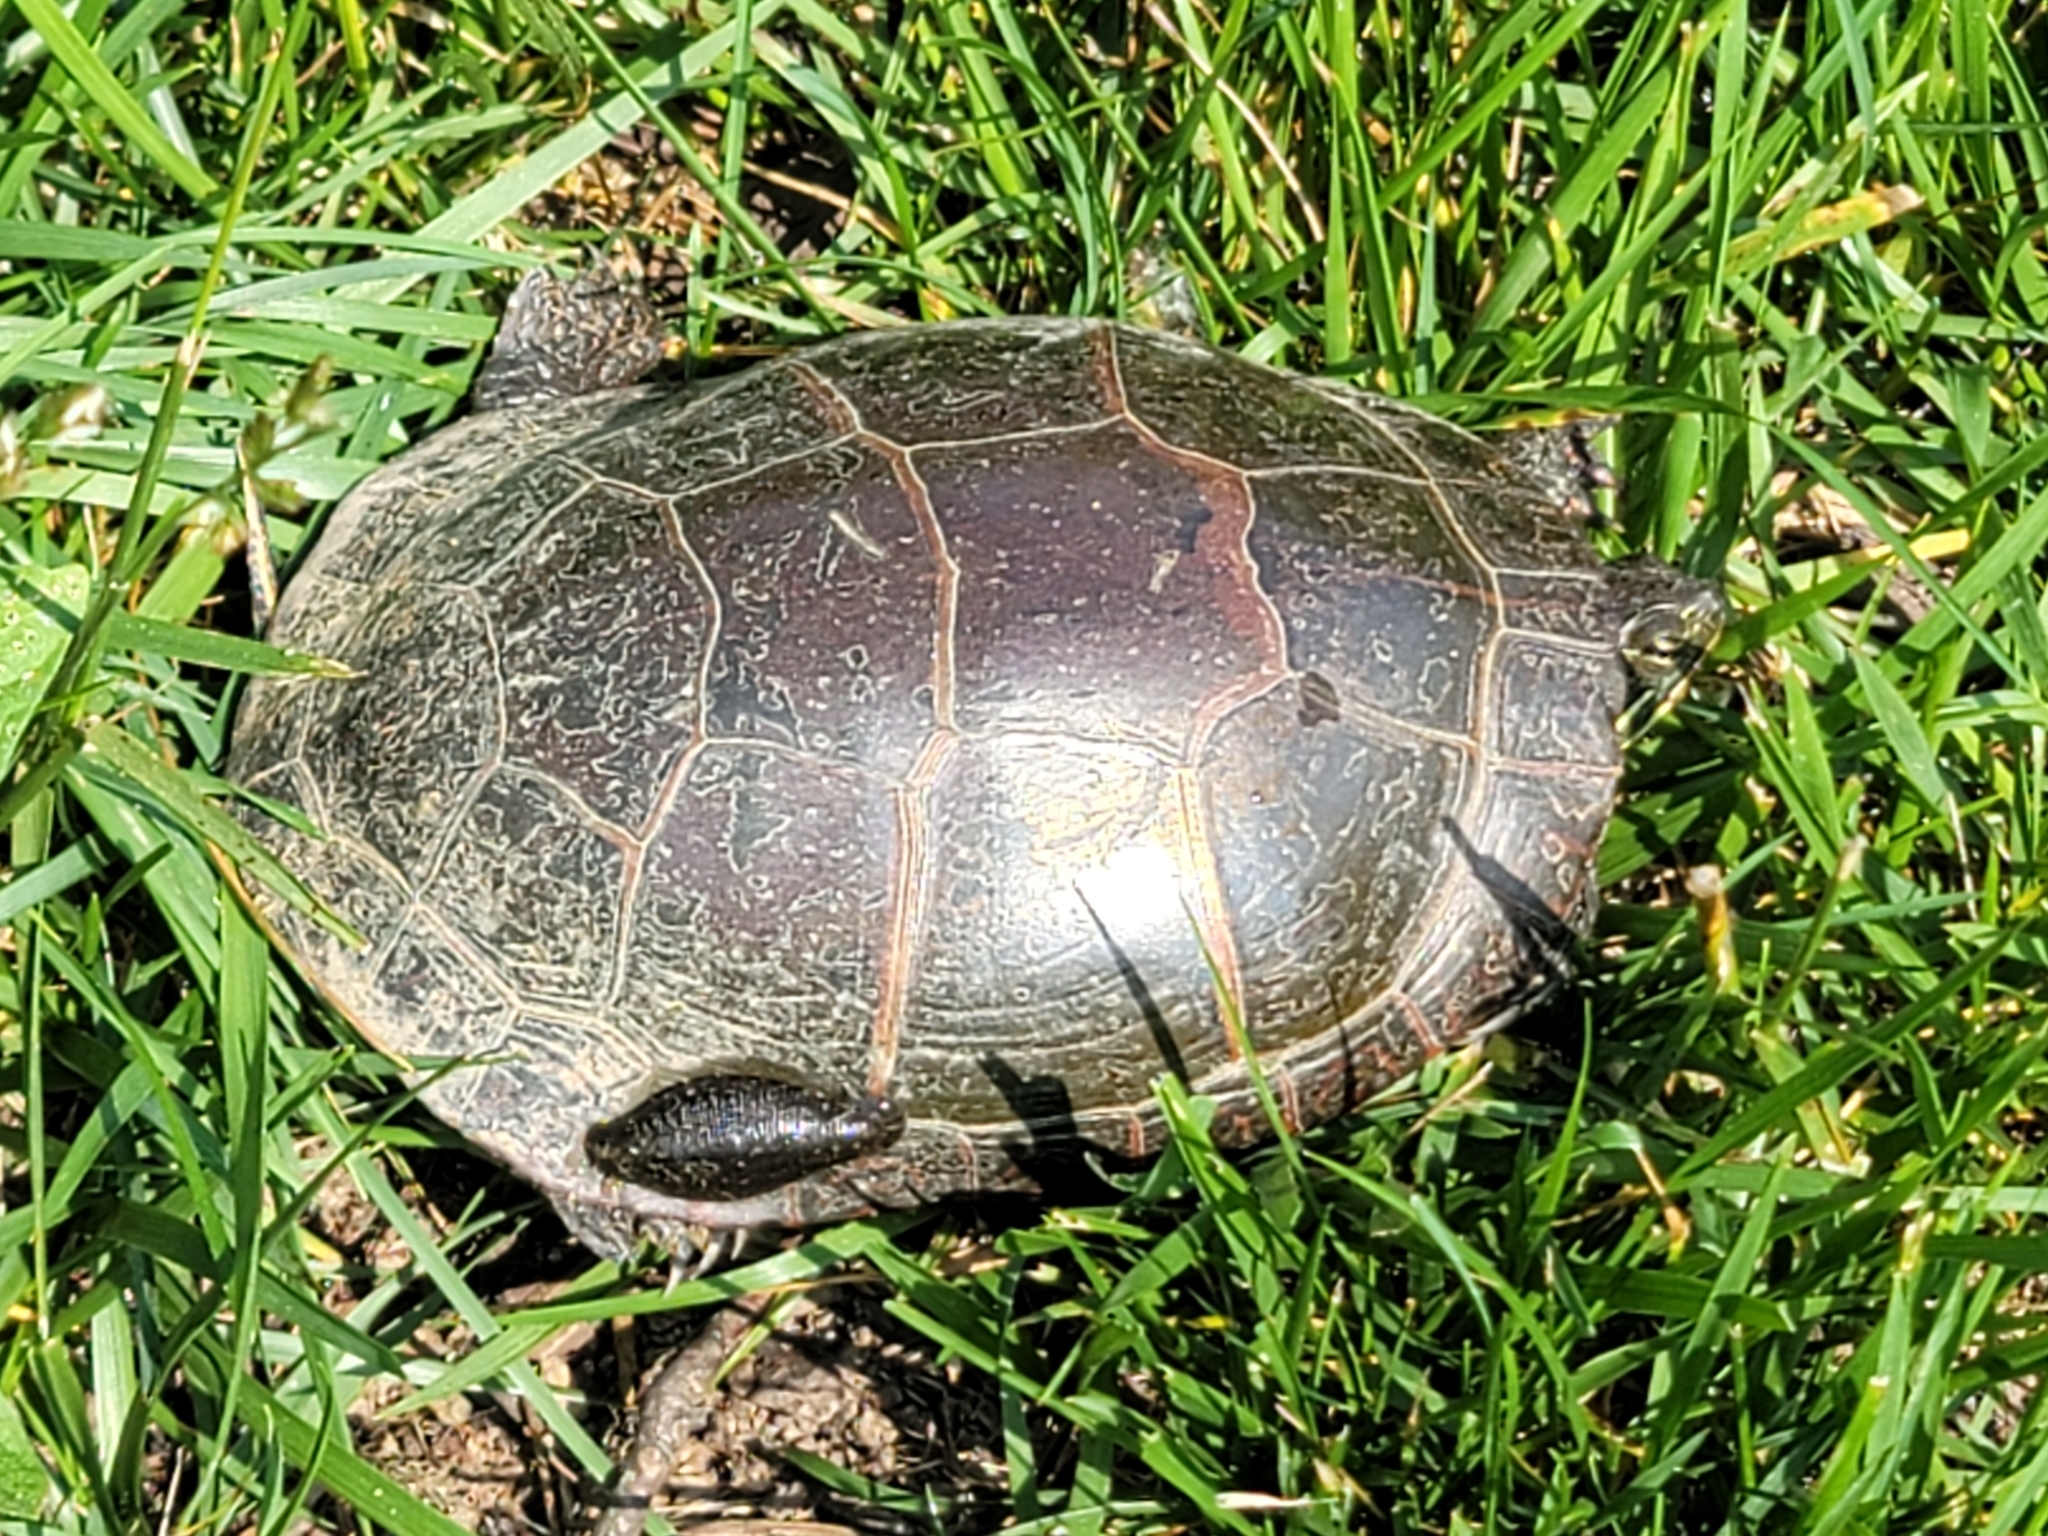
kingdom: Animalia
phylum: Chordata
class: Testudines
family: Emydidae
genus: Chrysemys
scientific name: Chrysemys picta
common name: Painted turtle
